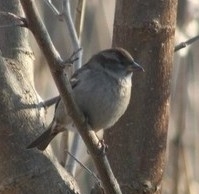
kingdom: Animalia
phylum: Chordata
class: Aves
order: Passeriformes
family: Passeridae
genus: Passer
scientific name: Passer domesticus
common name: House sparrow
